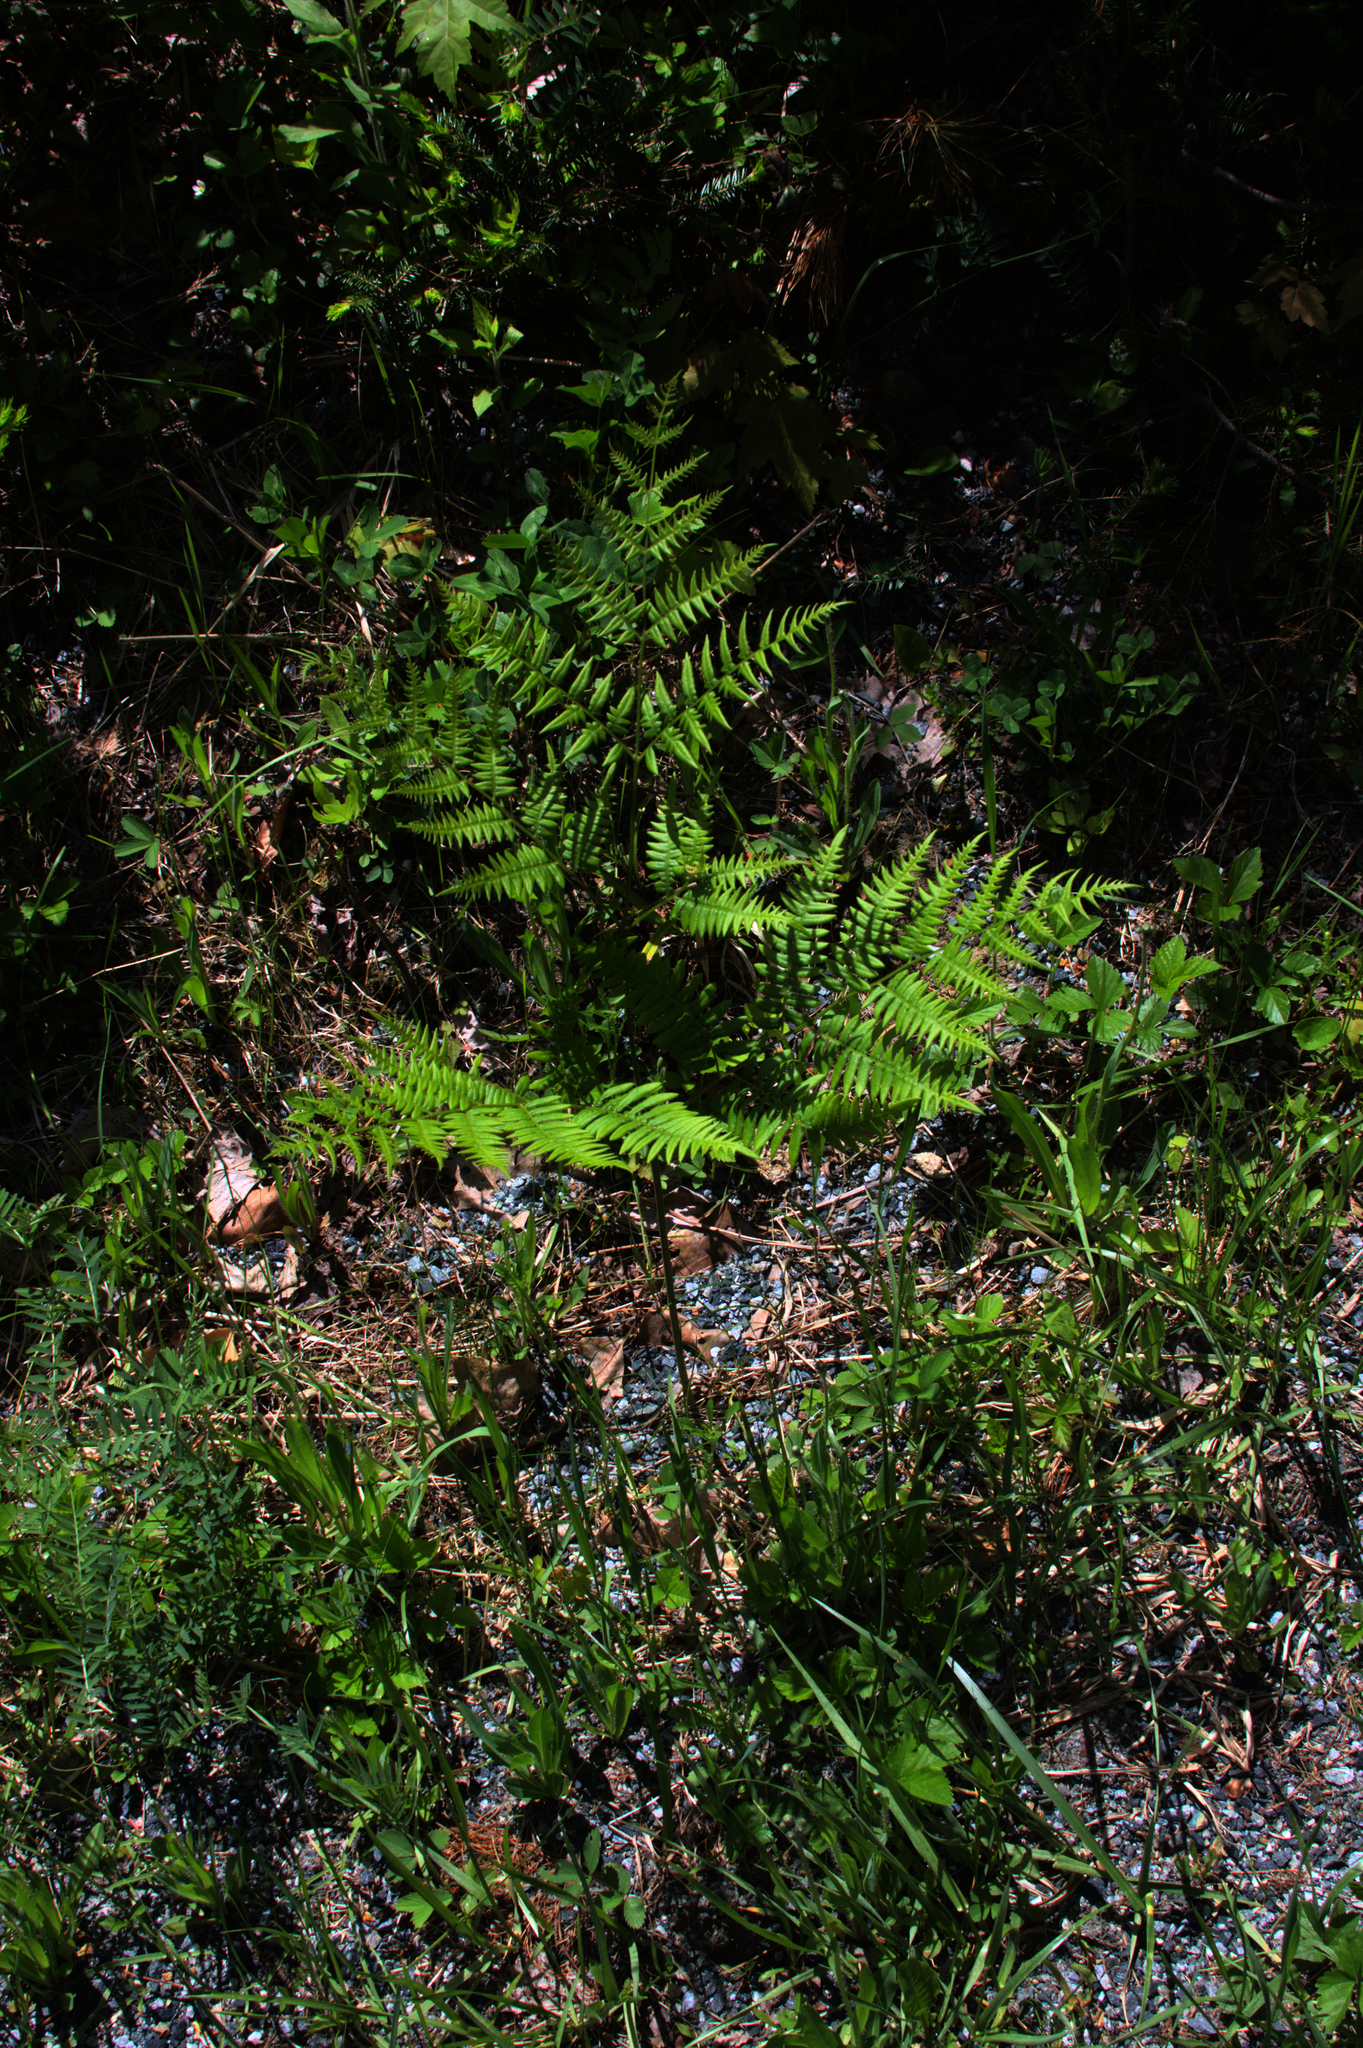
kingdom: Plantae
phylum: Tracheophyta
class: Polypodiopsida
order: Polypodiales
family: Dennstaedtiaceae
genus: Pteridium
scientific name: Pteridium aquilinum
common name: Bracken
